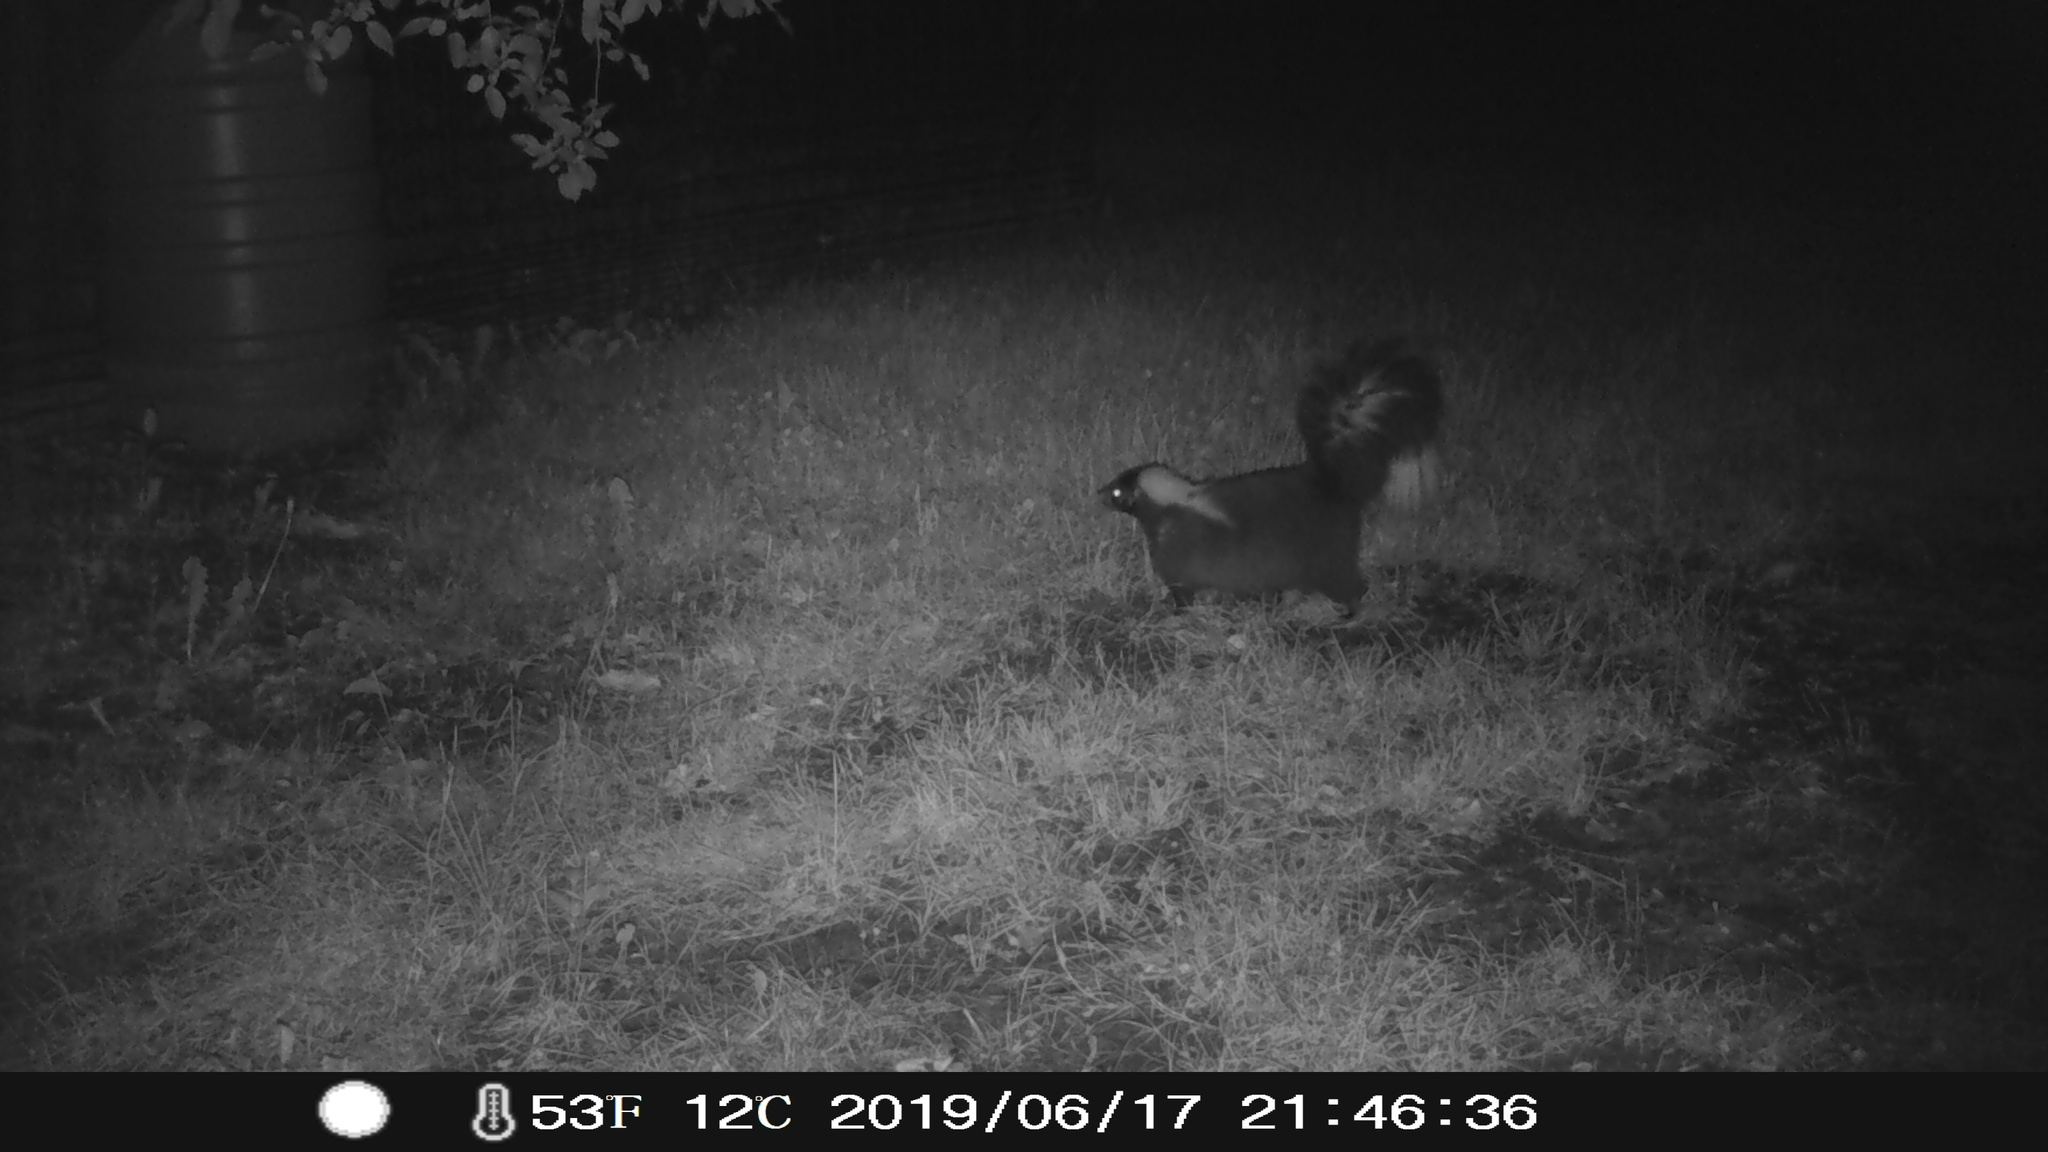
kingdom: Animalia
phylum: Chordata
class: Mammalia
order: Carnivora
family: Mephitidae
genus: Mephitis
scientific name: Mephitis mephitis
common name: Striped skunk
